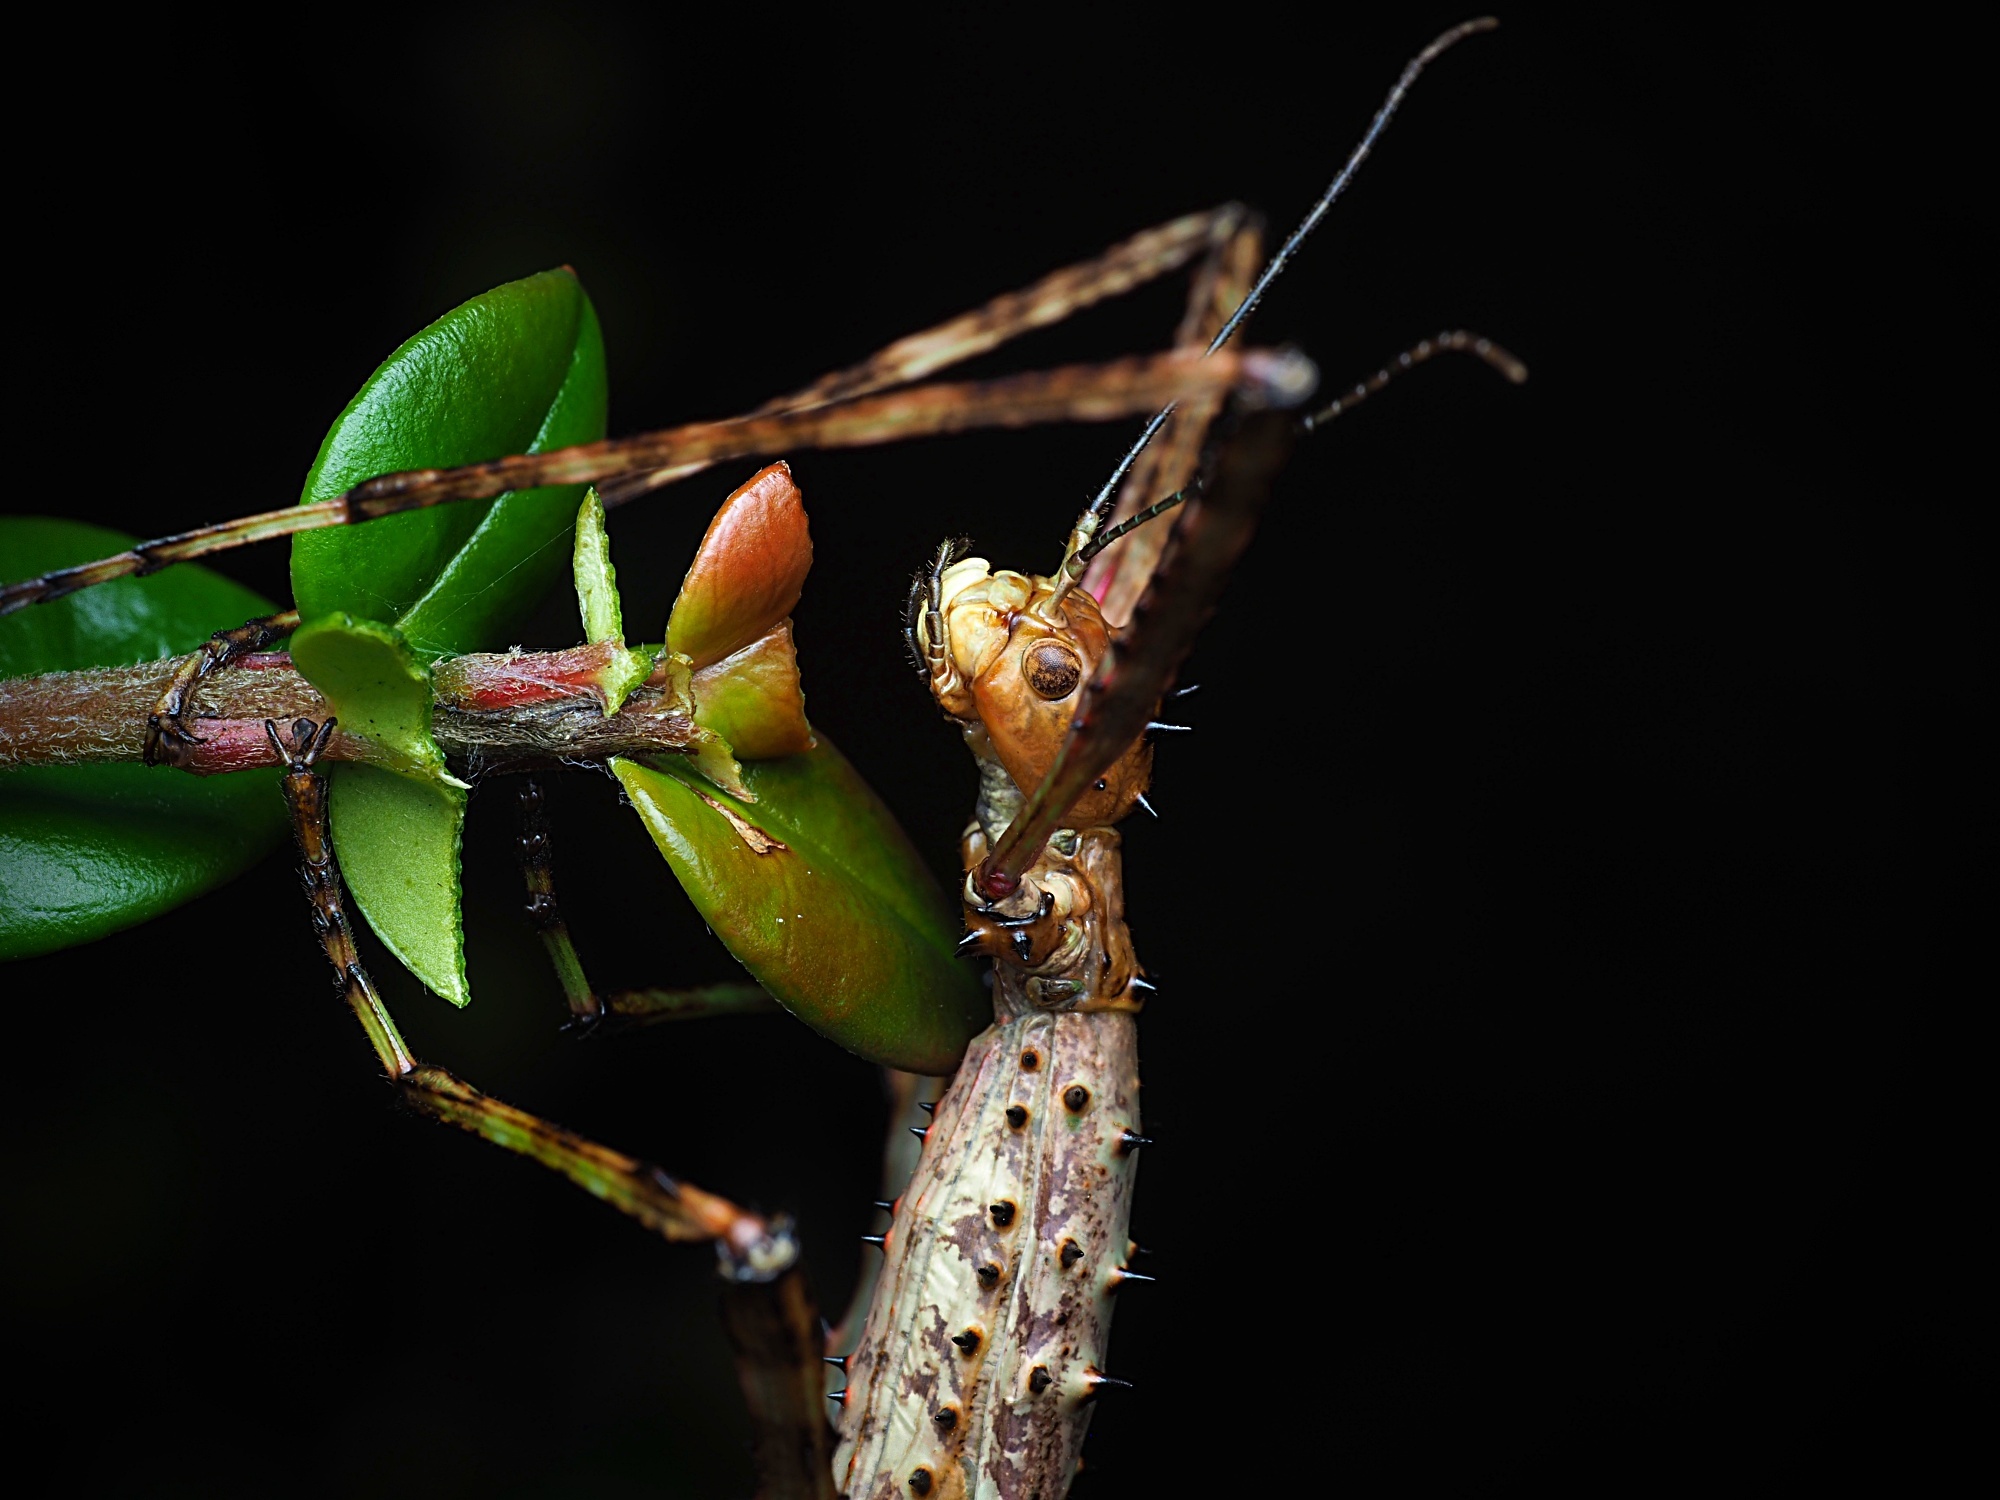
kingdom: Animalia
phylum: Arthropoda
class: Insecta
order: Phasmida
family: Phasmatidae
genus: Acanthoxyla
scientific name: Acanthoxyla prasina
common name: Black-spined stick insect
